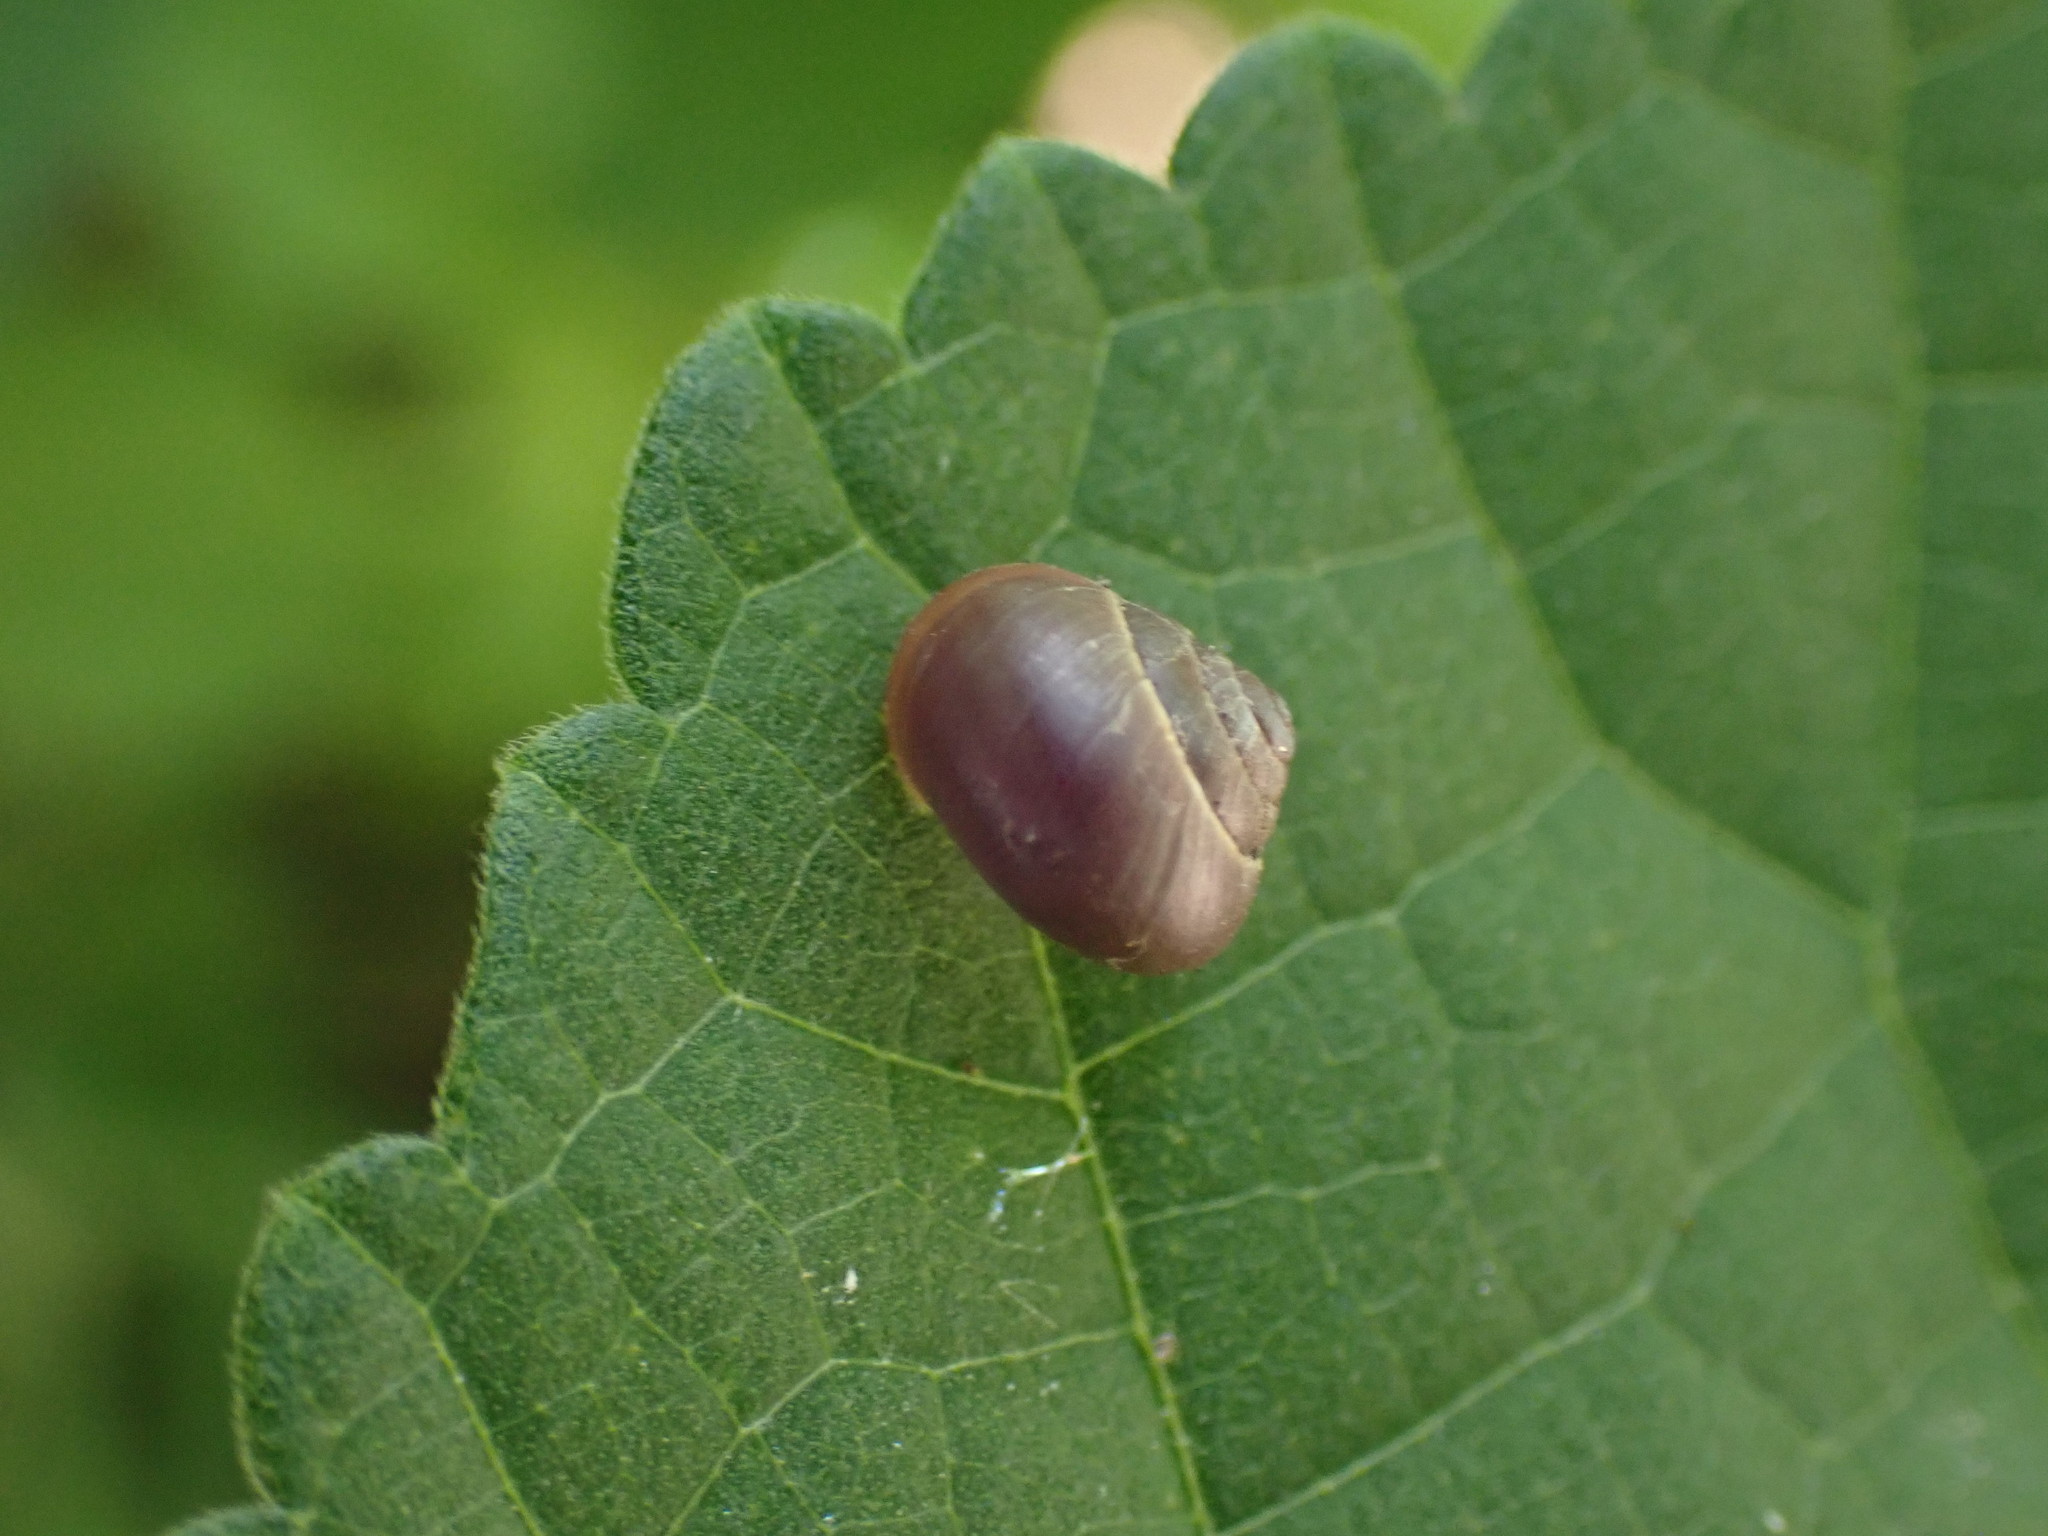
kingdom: Animalia
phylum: Mollusca
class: Gastropoda
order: Cycloneritida
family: Helicinidae
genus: Helicina
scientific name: Helicina orbiculata
